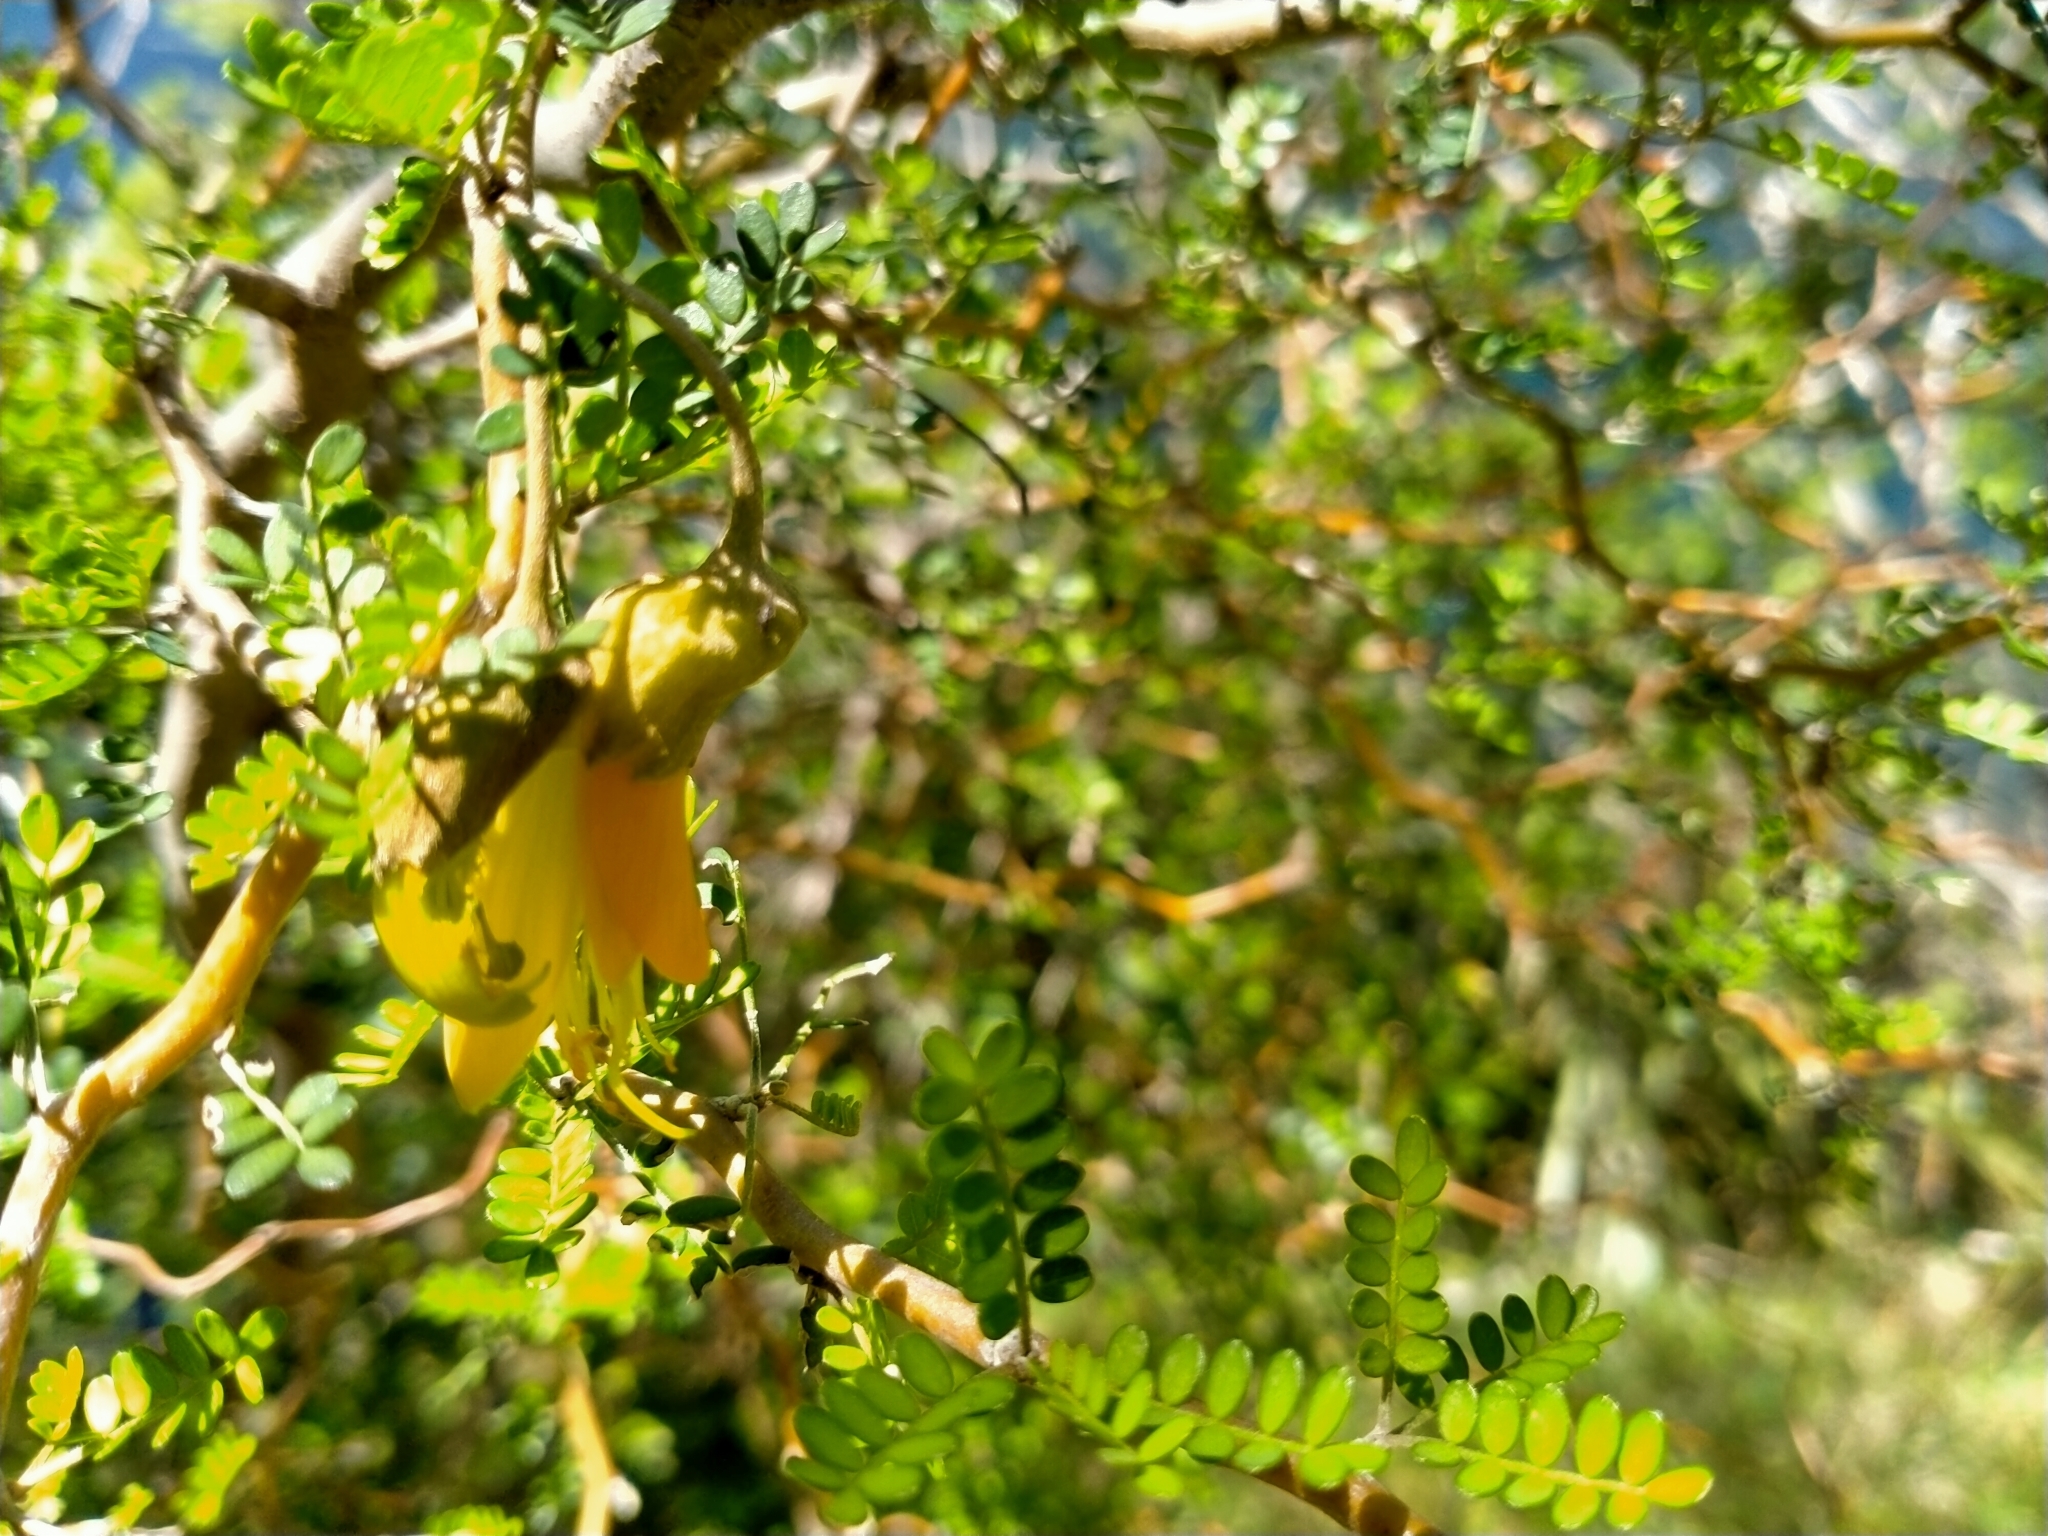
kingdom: Plantae
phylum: Tracheophyta
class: Magnoliopsida
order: Fabales
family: Fabaceae
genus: Sophora
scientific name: Sophora prostrata
